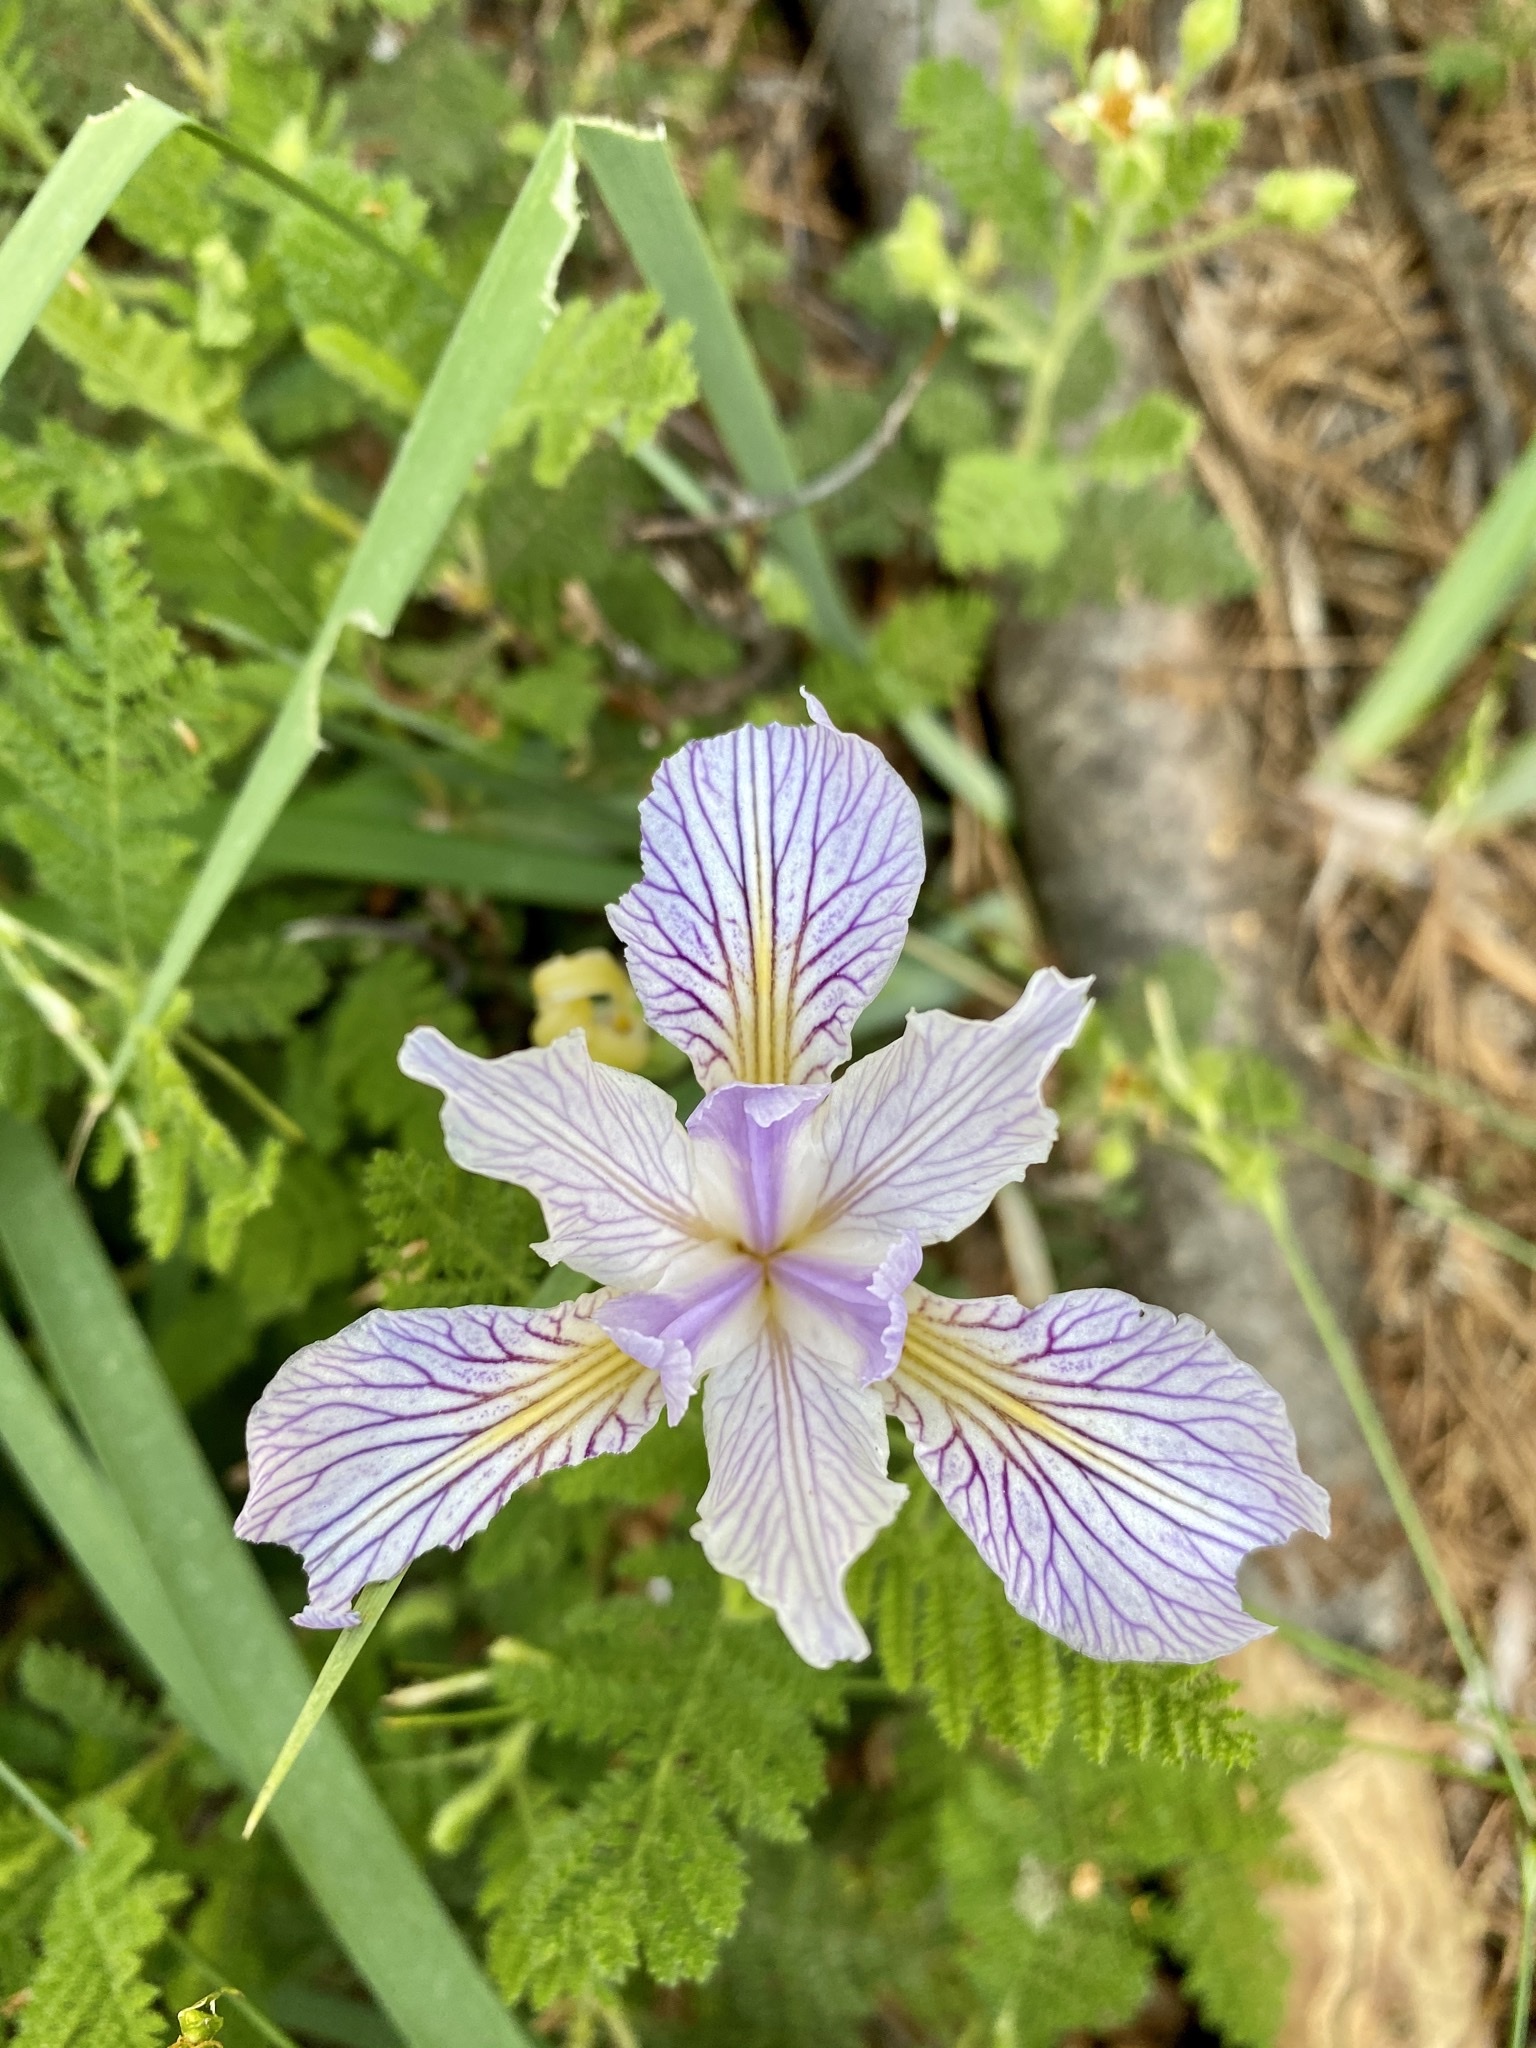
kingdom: Plantae
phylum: Tracheophyta
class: Liliopsida
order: Asparagales
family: Iridaceae
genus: Iris
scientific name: Iris hartwegii
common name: Sierra iris
